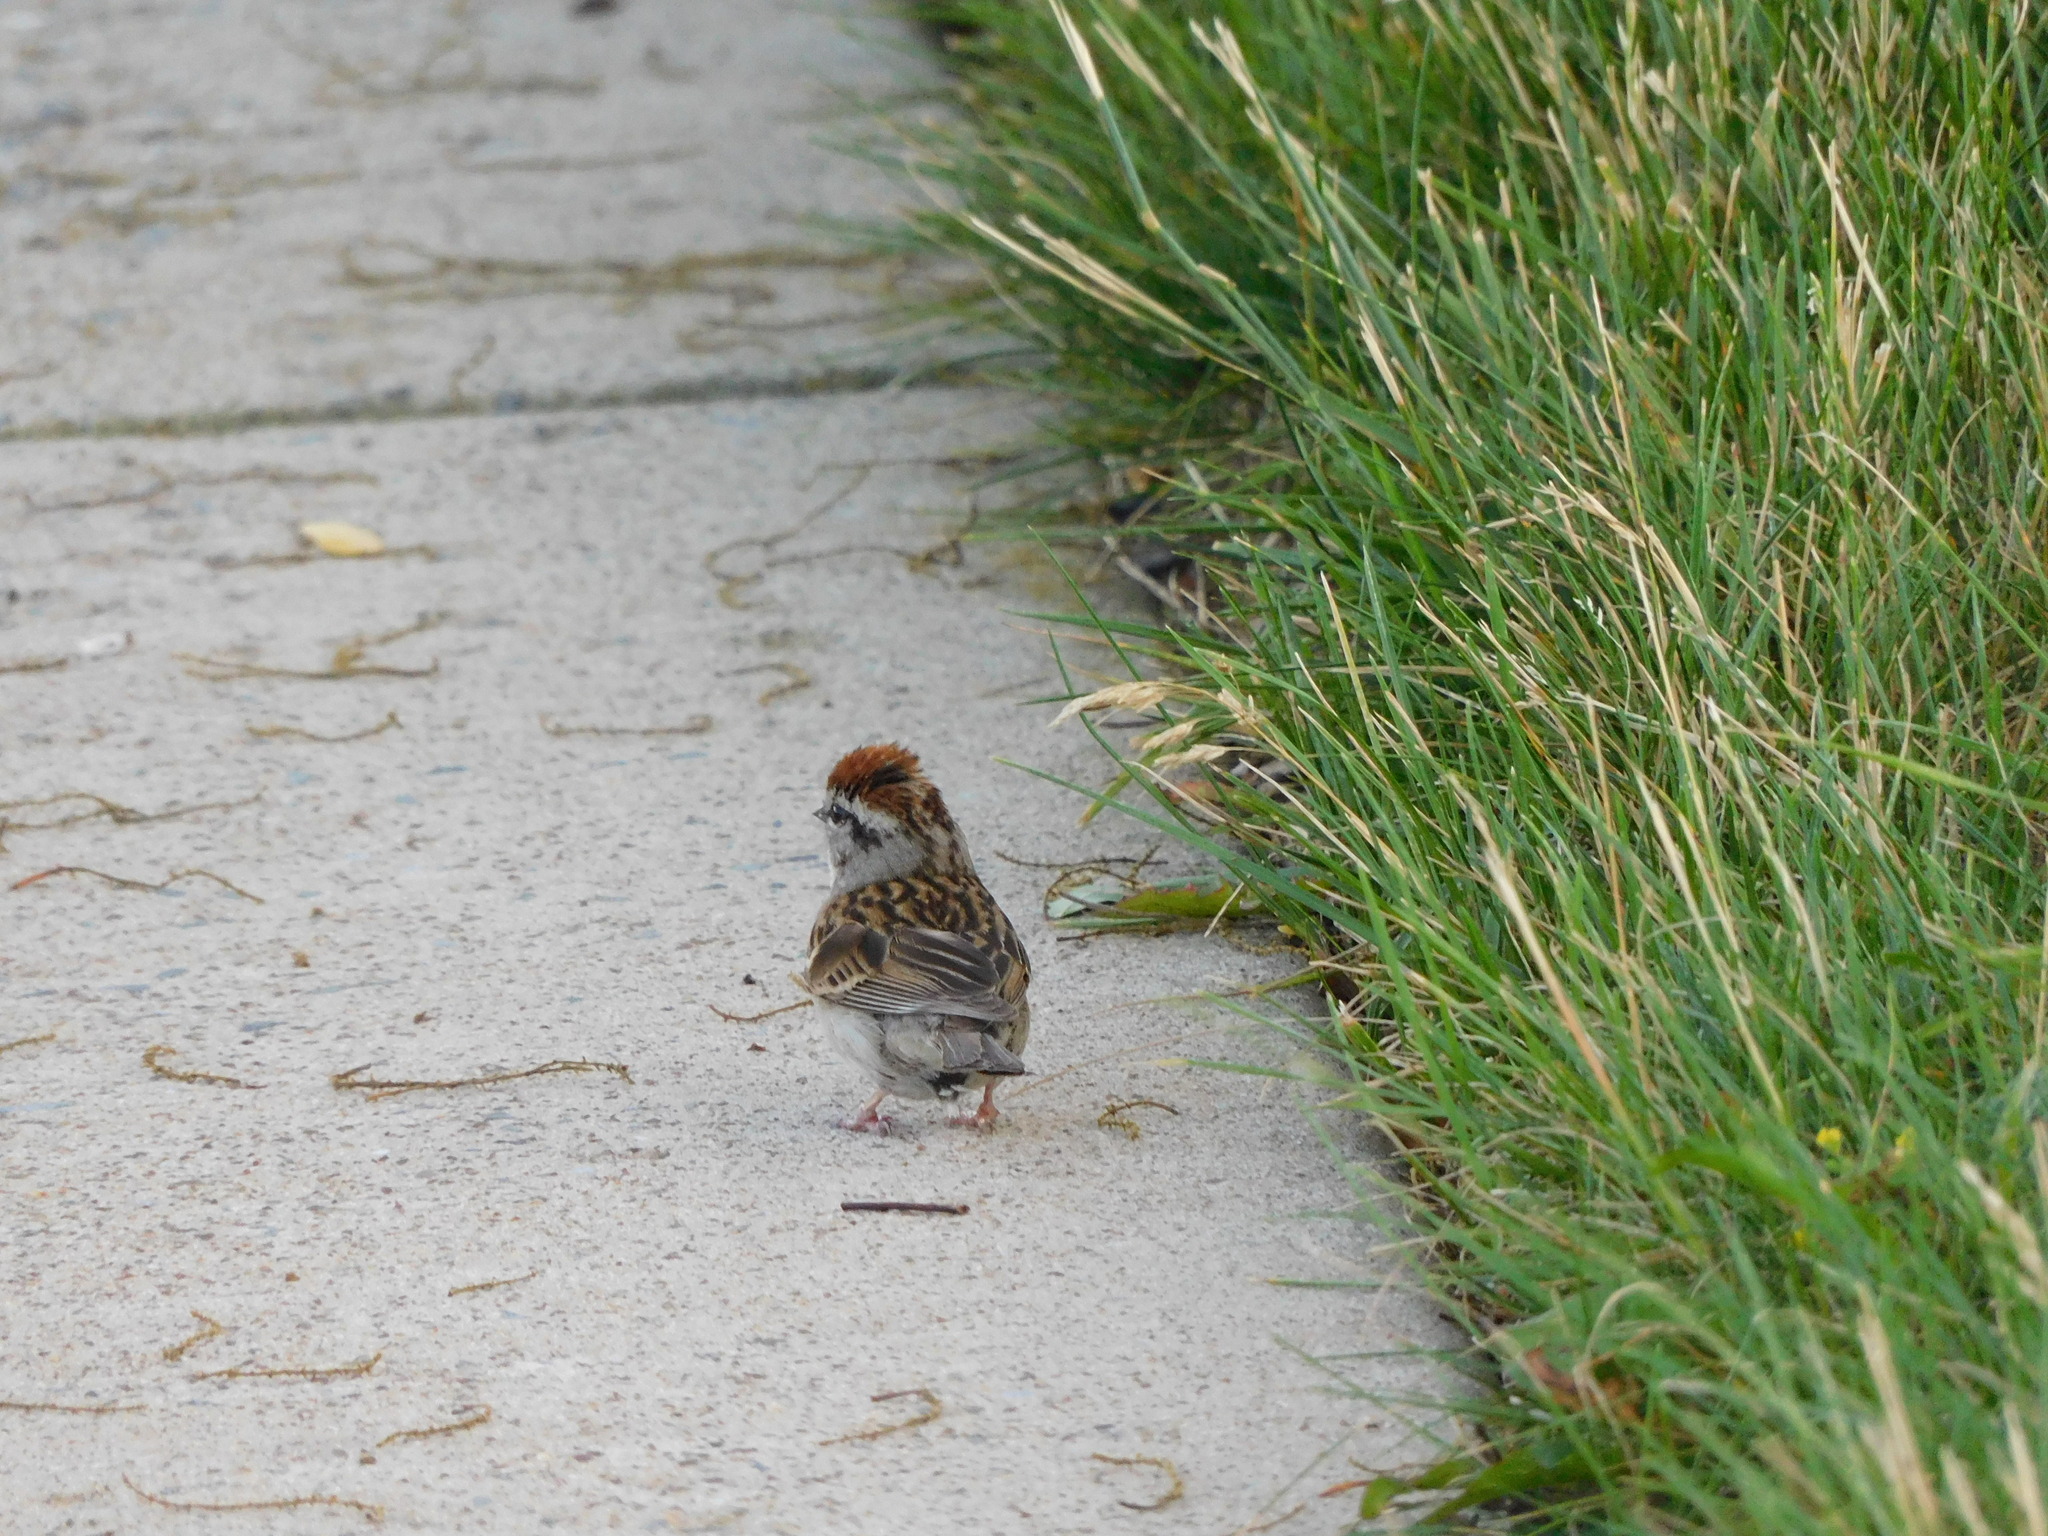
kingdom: Animalia
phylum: Chordata
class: Aves
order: Passeriformes
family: Passerellidae
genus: Spizella
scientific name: Spizella passerina
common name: Chipping sparrow
